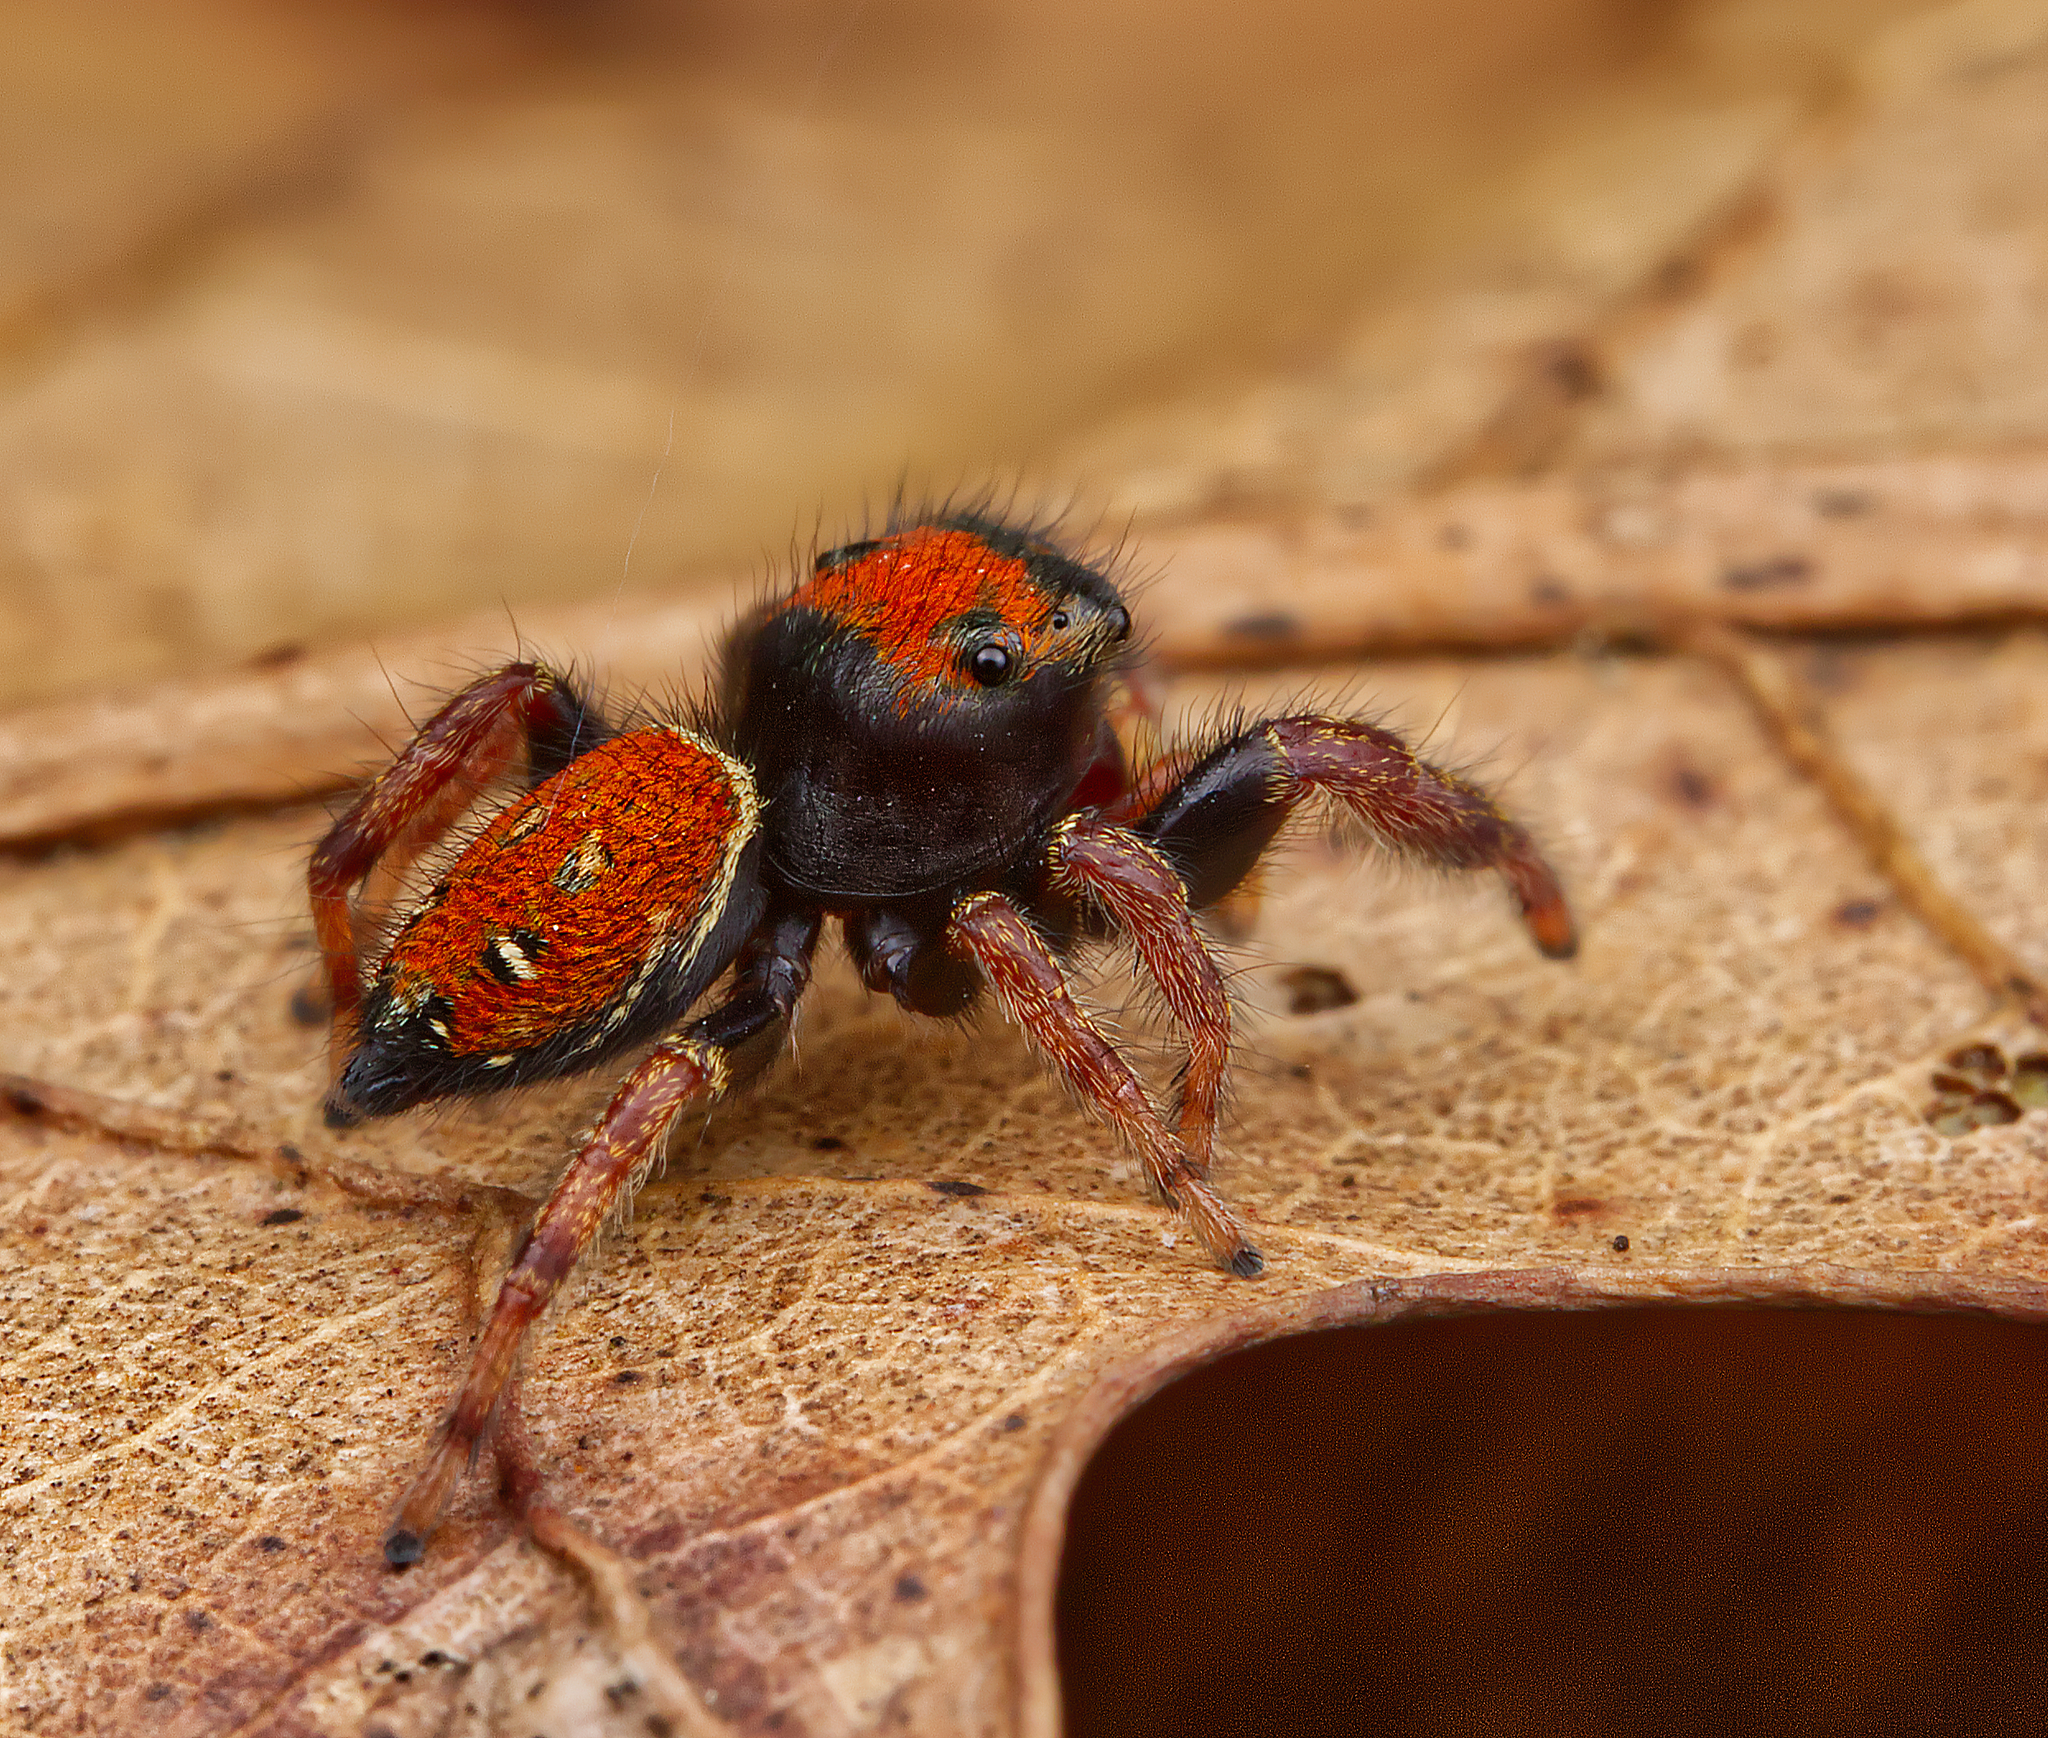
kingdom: Animalia
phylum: Arthropoda
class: Arachnida
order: Araneae
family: Salticidae
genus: Phidippus
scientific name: Phidippus whitmani
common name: Whitman's jumping spider
